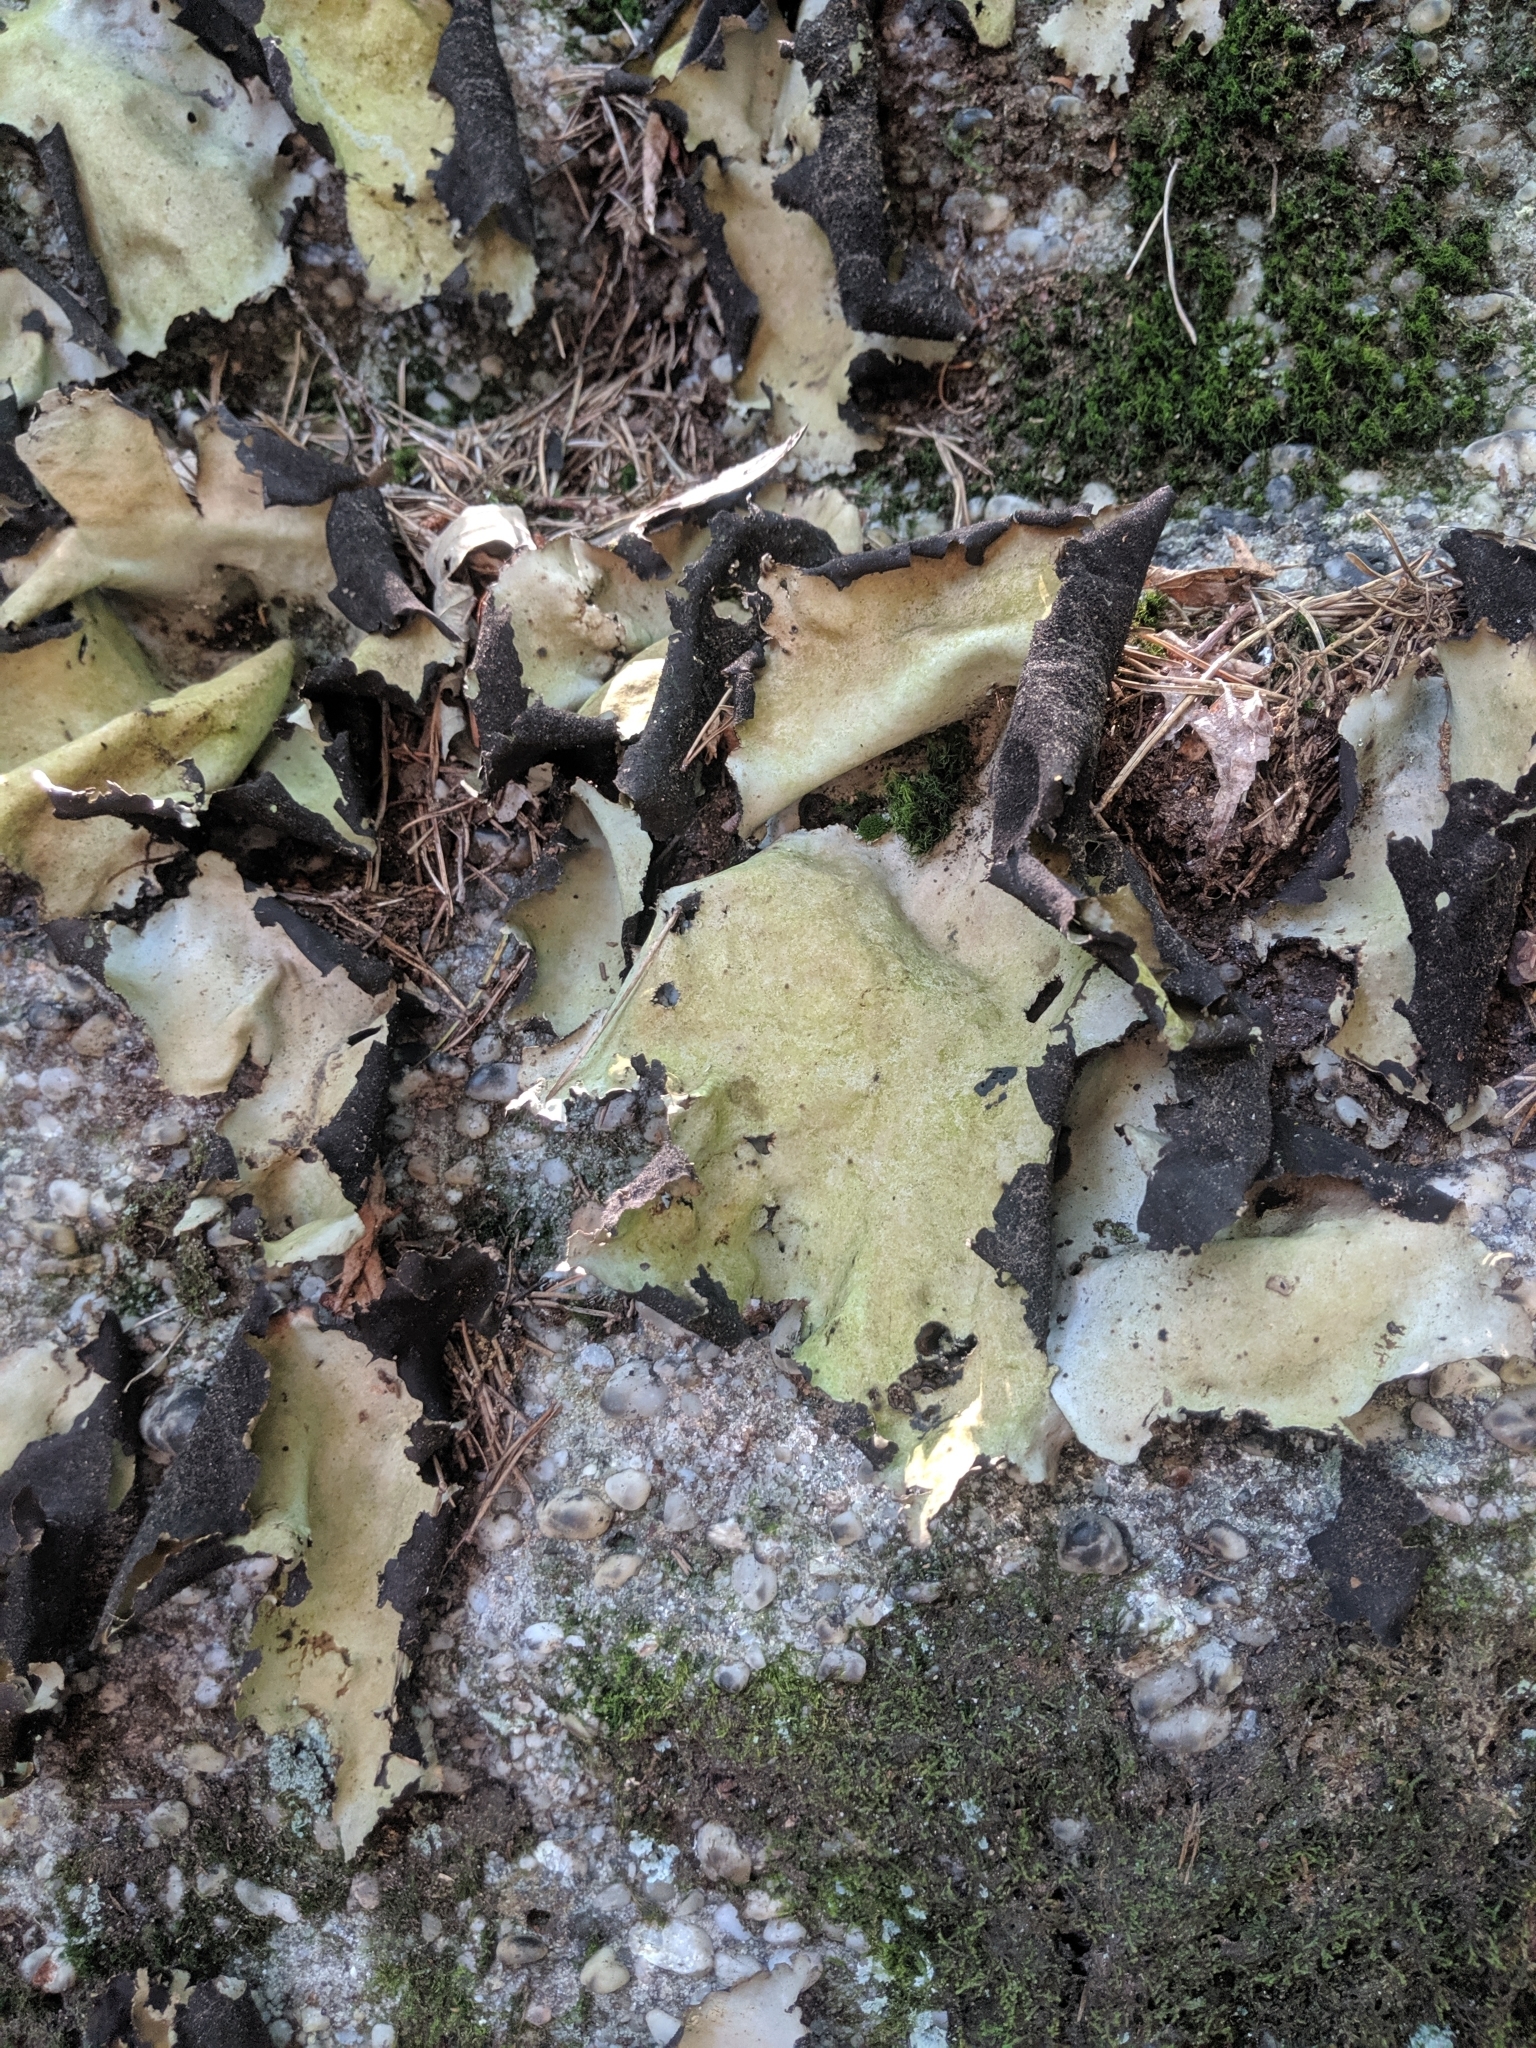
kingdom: Fungi
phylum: Ascomycota
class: Lecanoromycetes
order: Umbilicariales
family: Umbilicariaceae
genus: Umbilicaria
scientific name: Umbilicaria mammulata
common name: Smooth rock tripe
